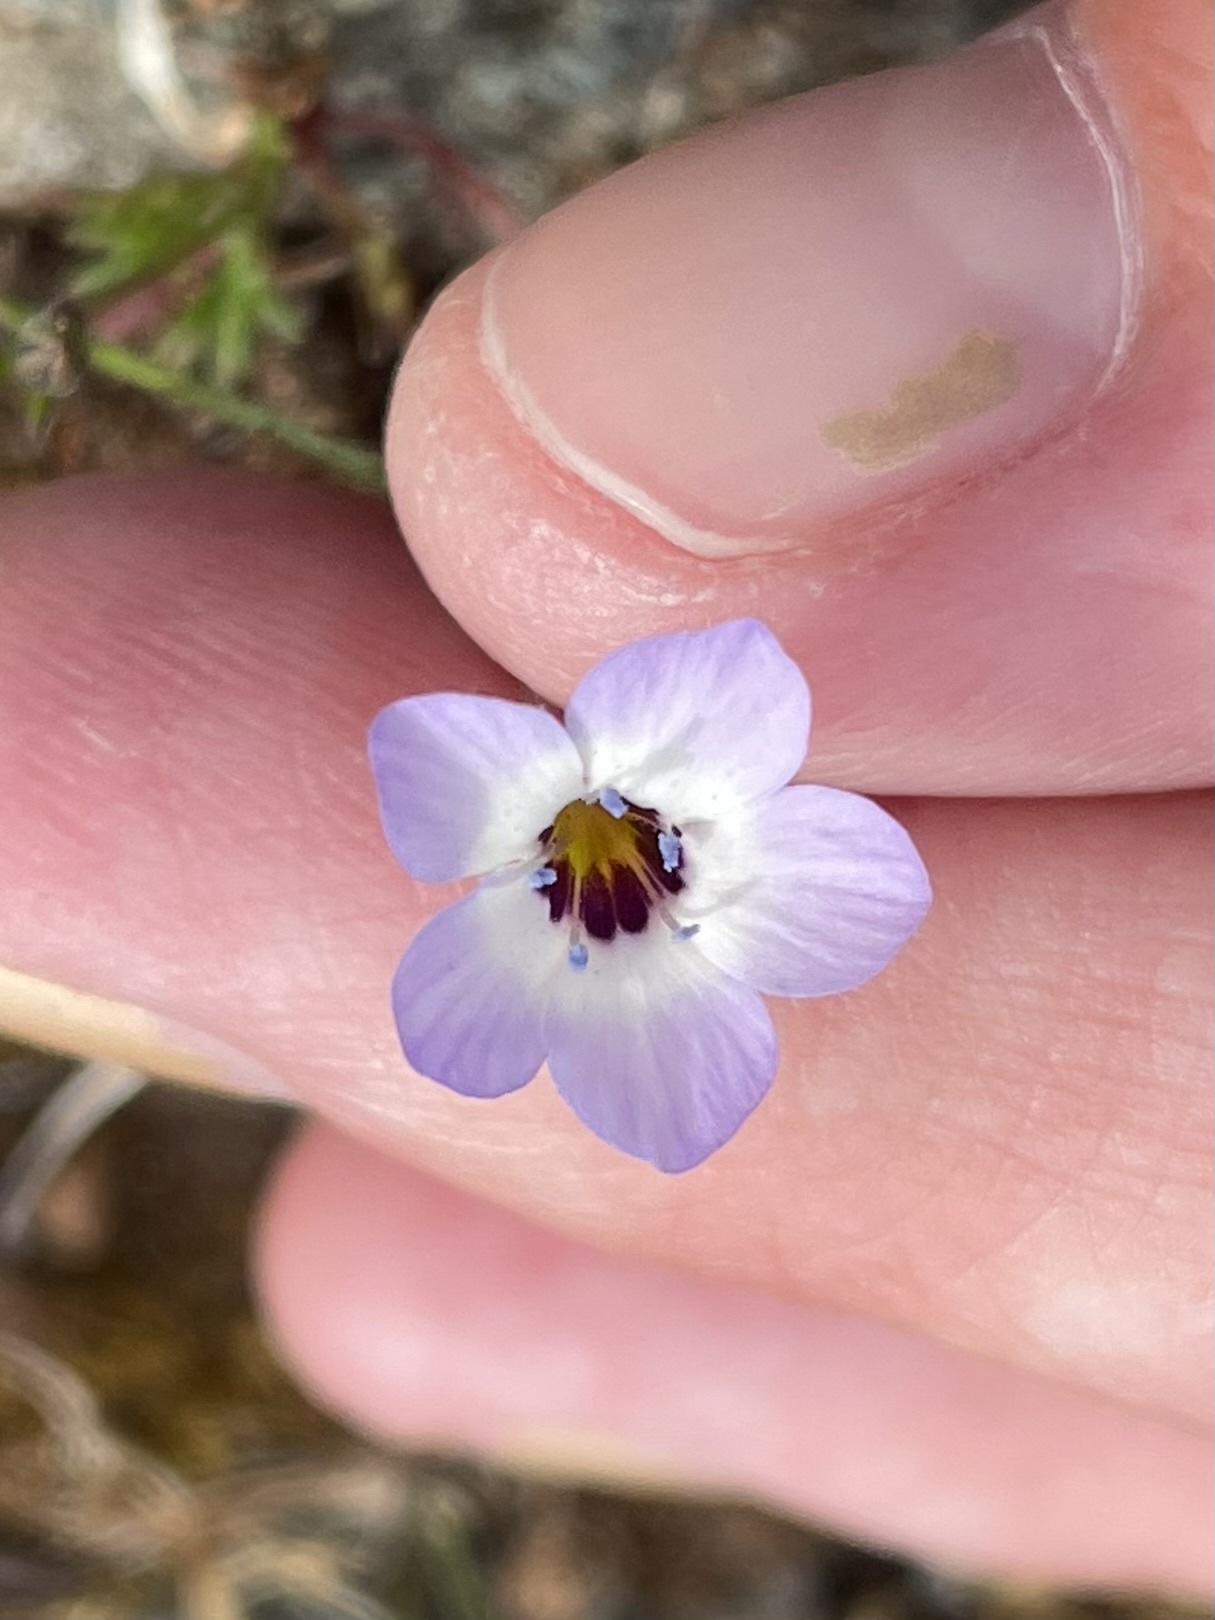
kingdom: Plantae
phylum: Tracheophyta
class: Magnoliopsida
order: Ericales
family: Polemoniaceae
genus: Gilia
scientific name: Gilia tricolor
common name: Bird's-eyes
